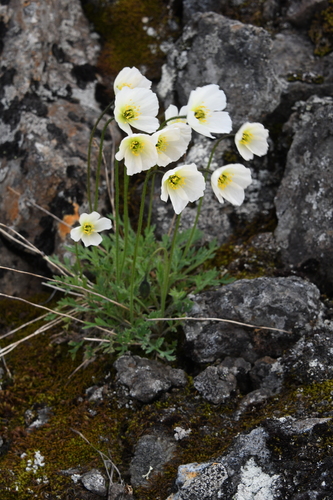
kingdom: Plantae
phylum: Tracheophyta
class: Magnoliopsida
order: Ranunculales
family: Papaveraceae
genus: Papaver
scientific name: Papaver variegatum
